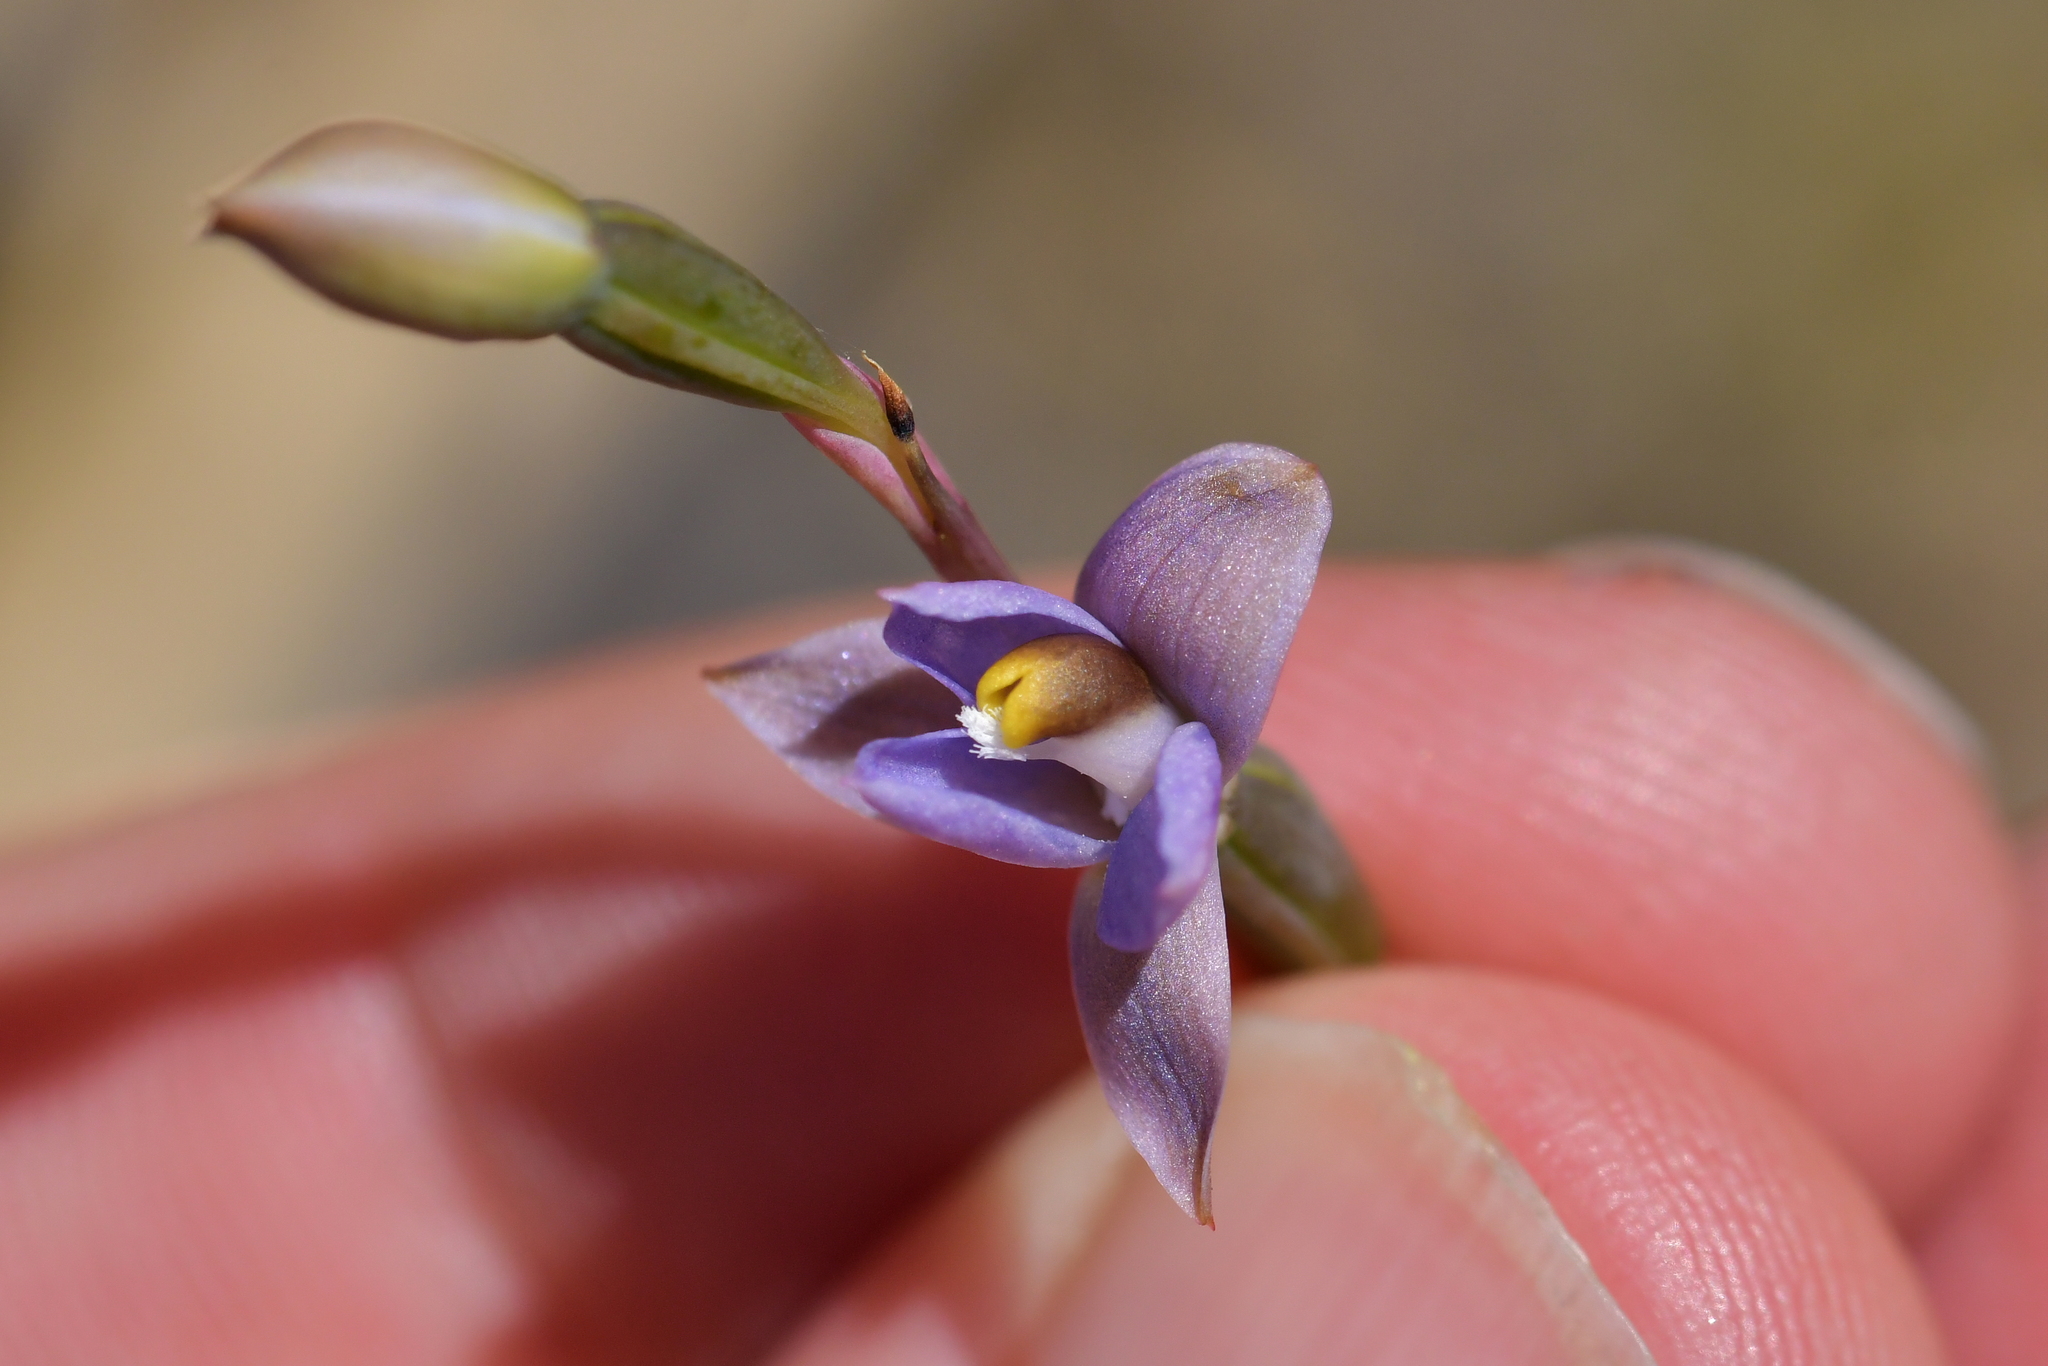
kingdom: Plantae
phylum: Tracheophyta
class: Liliopsida
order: Asparagales
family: Orchidaceae
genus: Thelymitra
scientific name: Thelymitra colensoi
